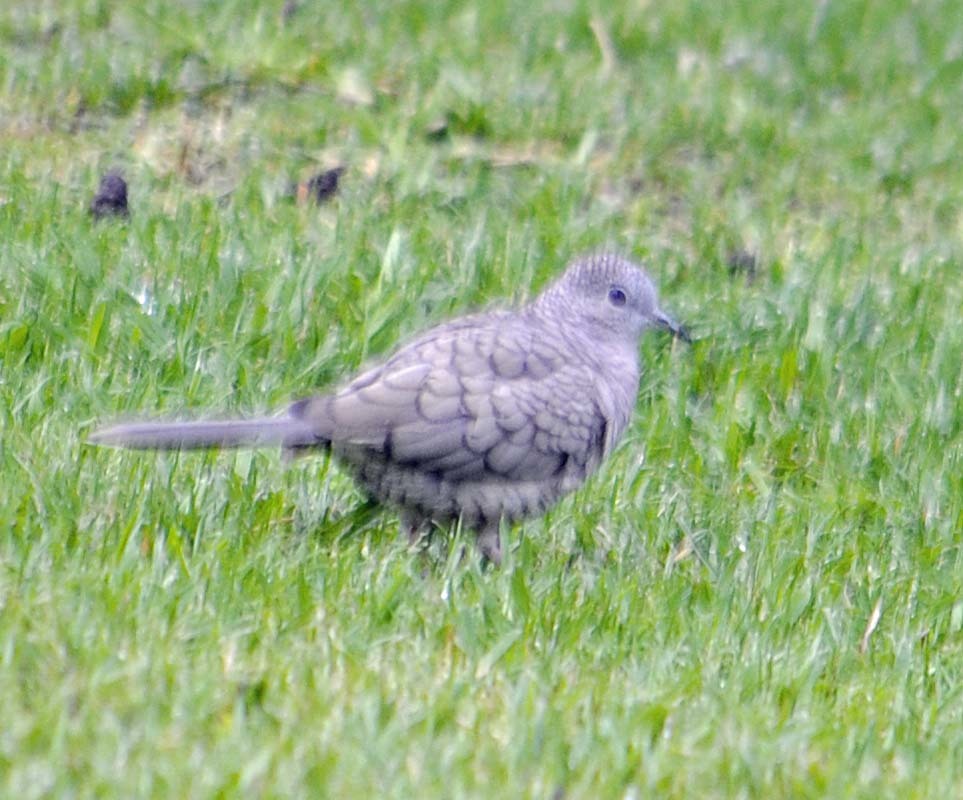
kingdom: Animalia
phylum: Chordata
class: Aves
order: Columbiformes
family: Columbidae
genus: Columbina
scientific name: Columbina inca
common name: Inca dove
